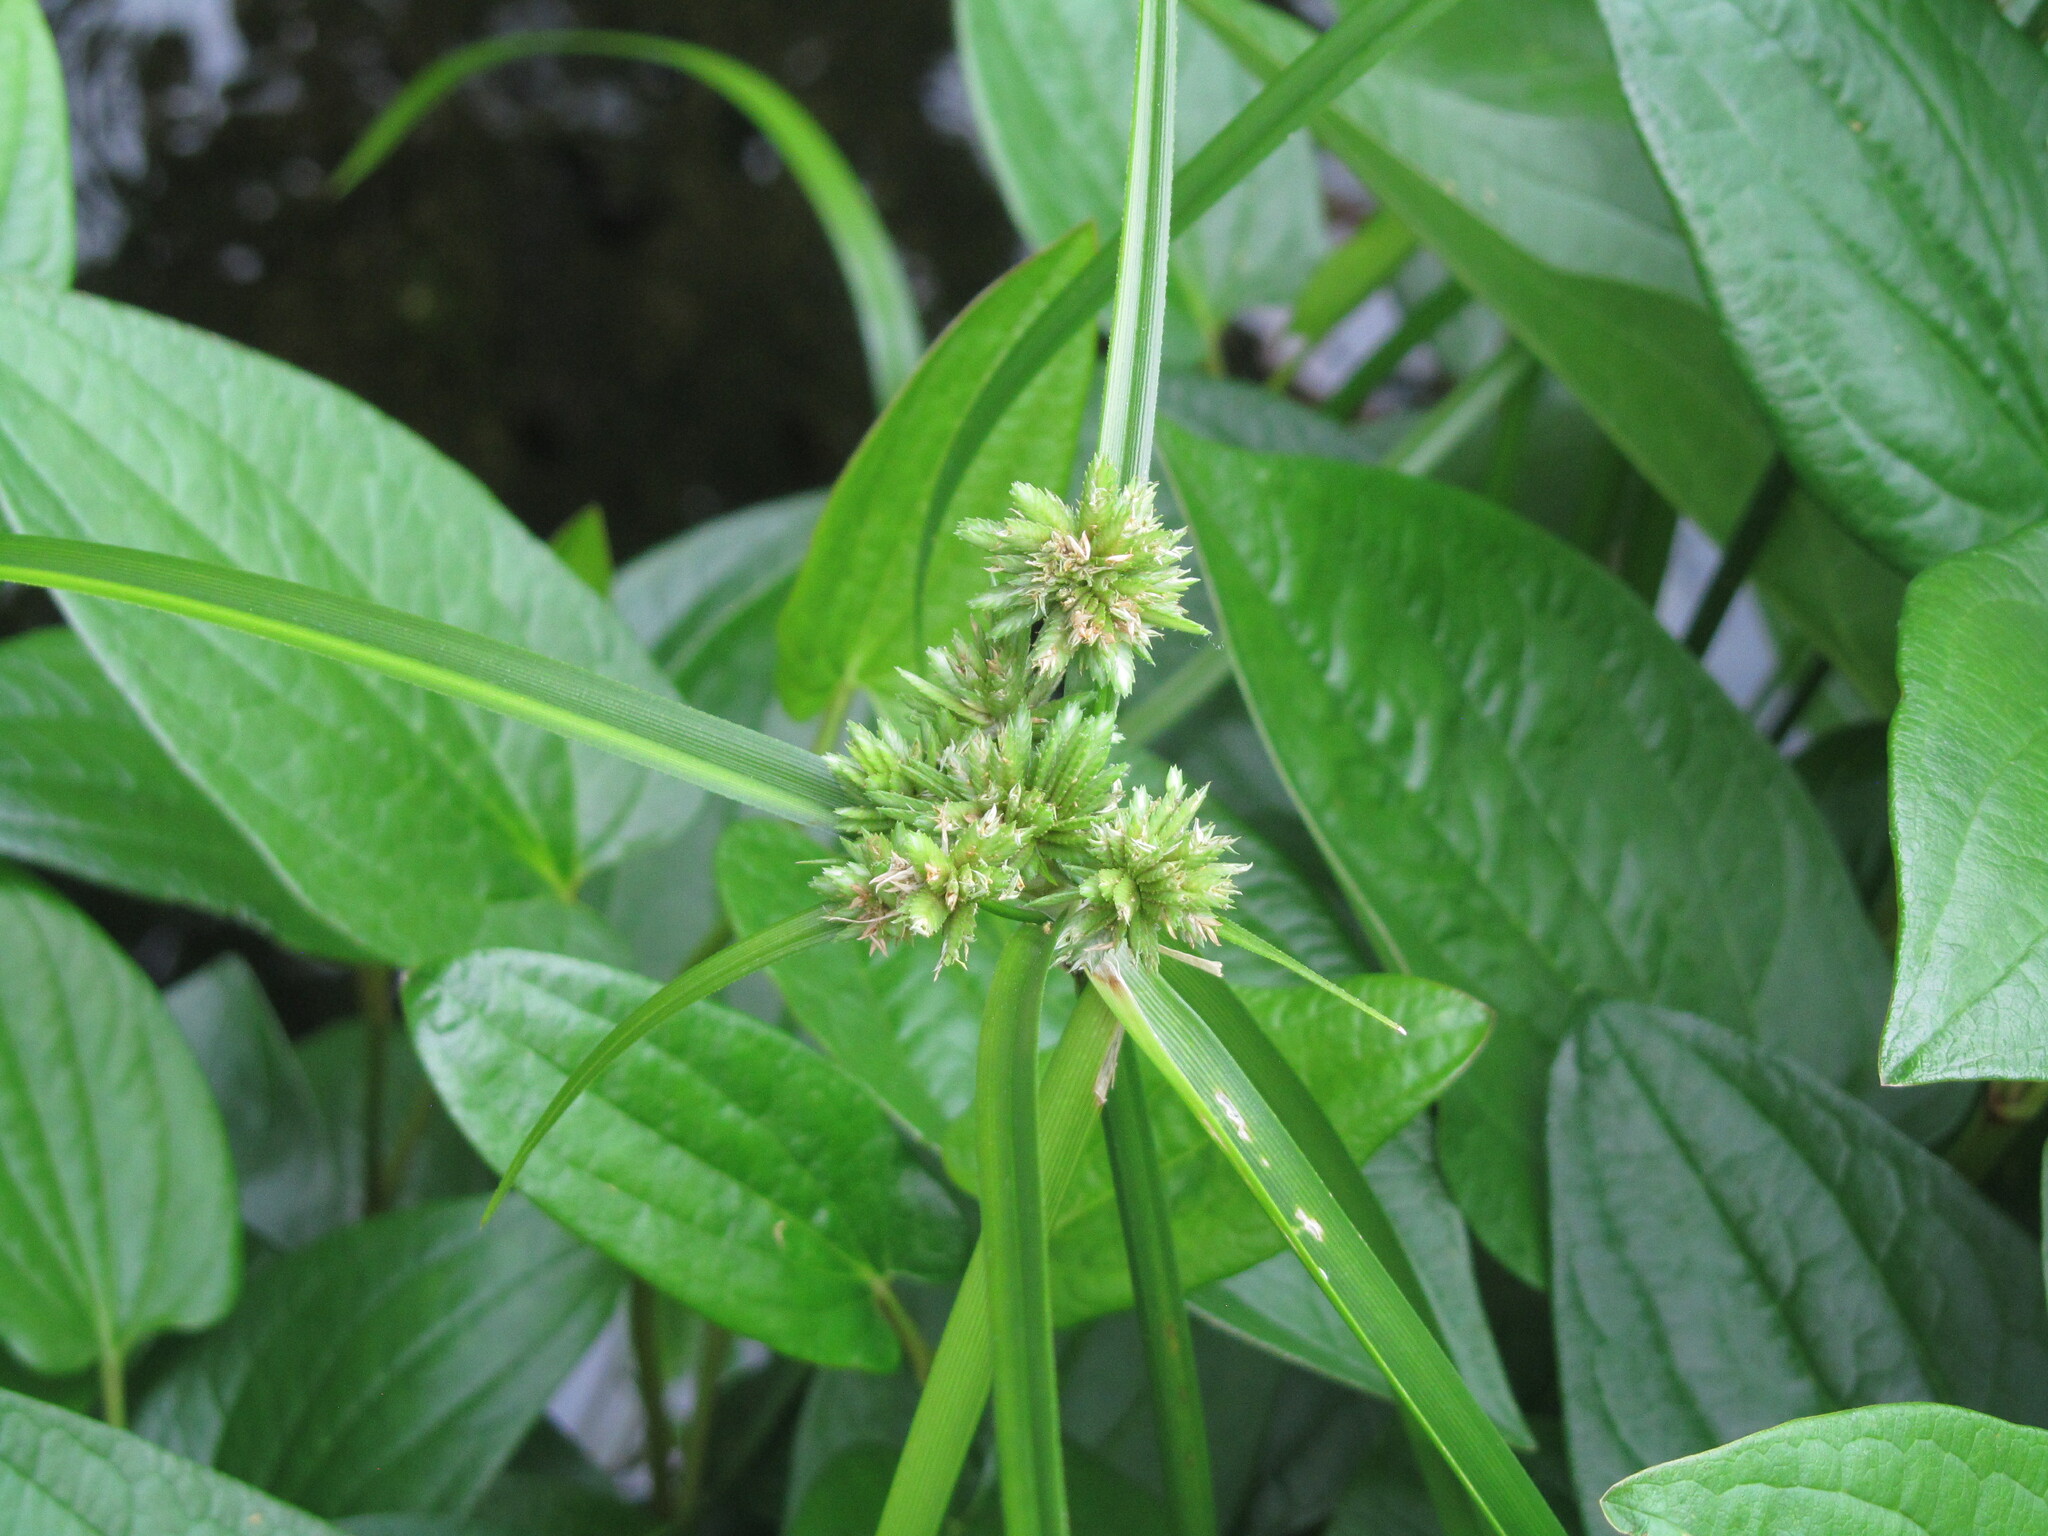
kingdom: Plantae
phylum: Tracheophyta
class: Liliopsida
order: Poales
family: Cyperaceae
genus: Cyperus
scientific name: Cyperus eragrostis
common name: Tall flatsedge
